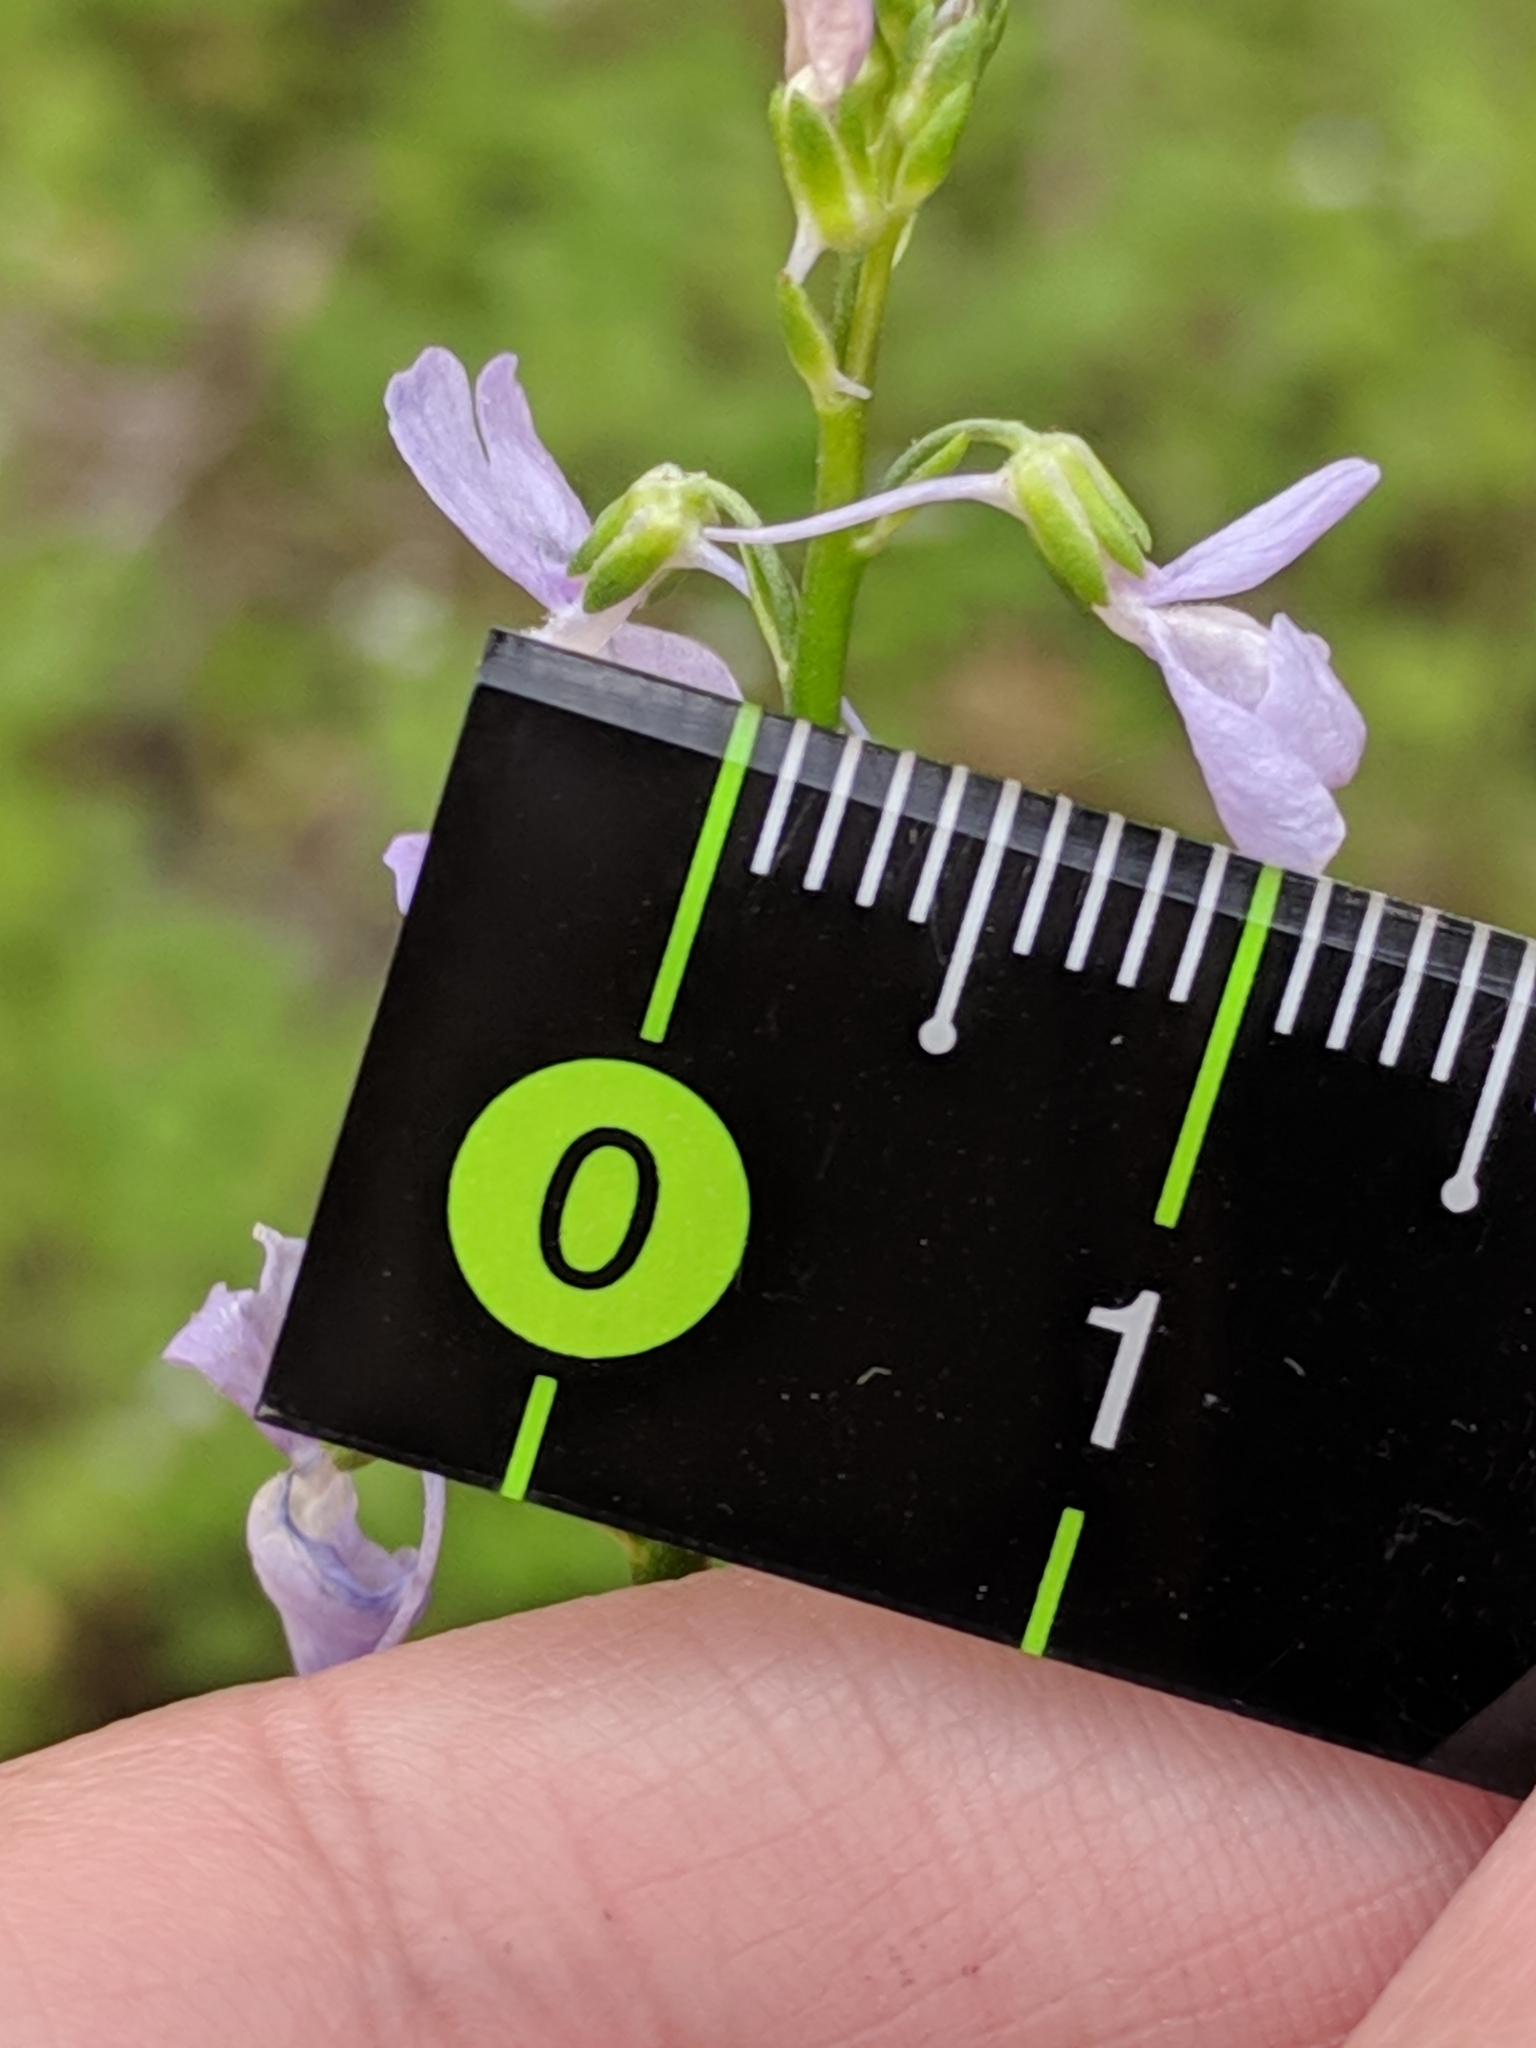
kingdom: Plantae
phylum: Tracheophyta
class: Magnoliopsida
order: Lamiales
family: Plantaginaceae
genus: Nuttallanthus
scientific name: Nuttallanthus texanus
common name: Texas toadflax
